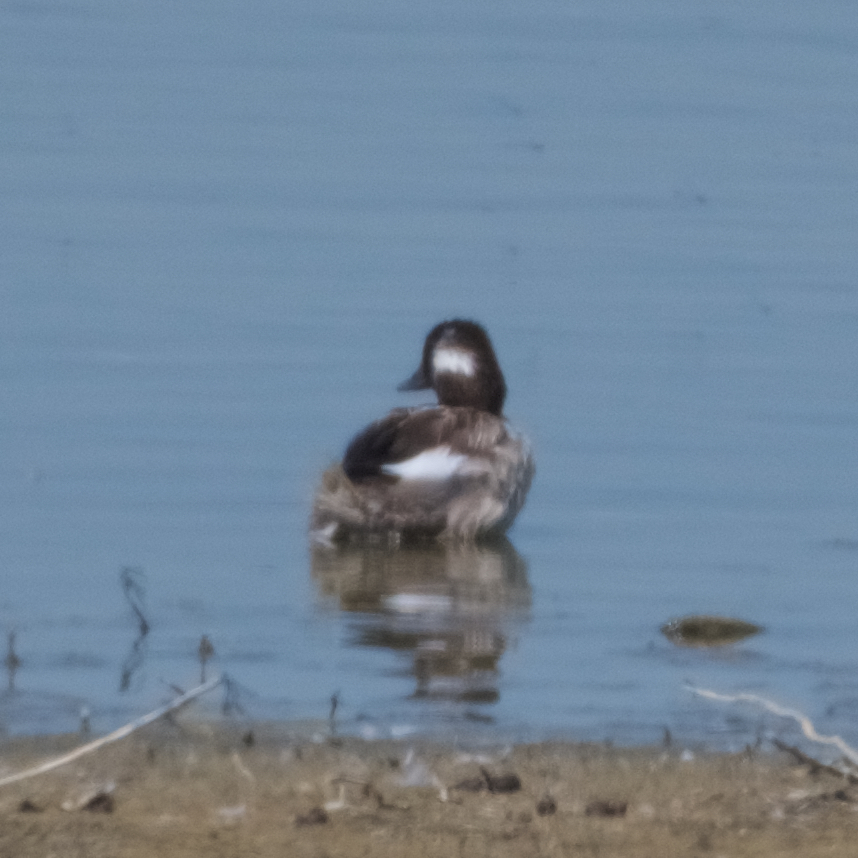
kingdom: Animalia
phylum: Chordata
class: Aves
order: Anseriformes
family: Anatidae
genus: Bucephala
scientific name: Bucephala albeola
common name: Bufflehead
